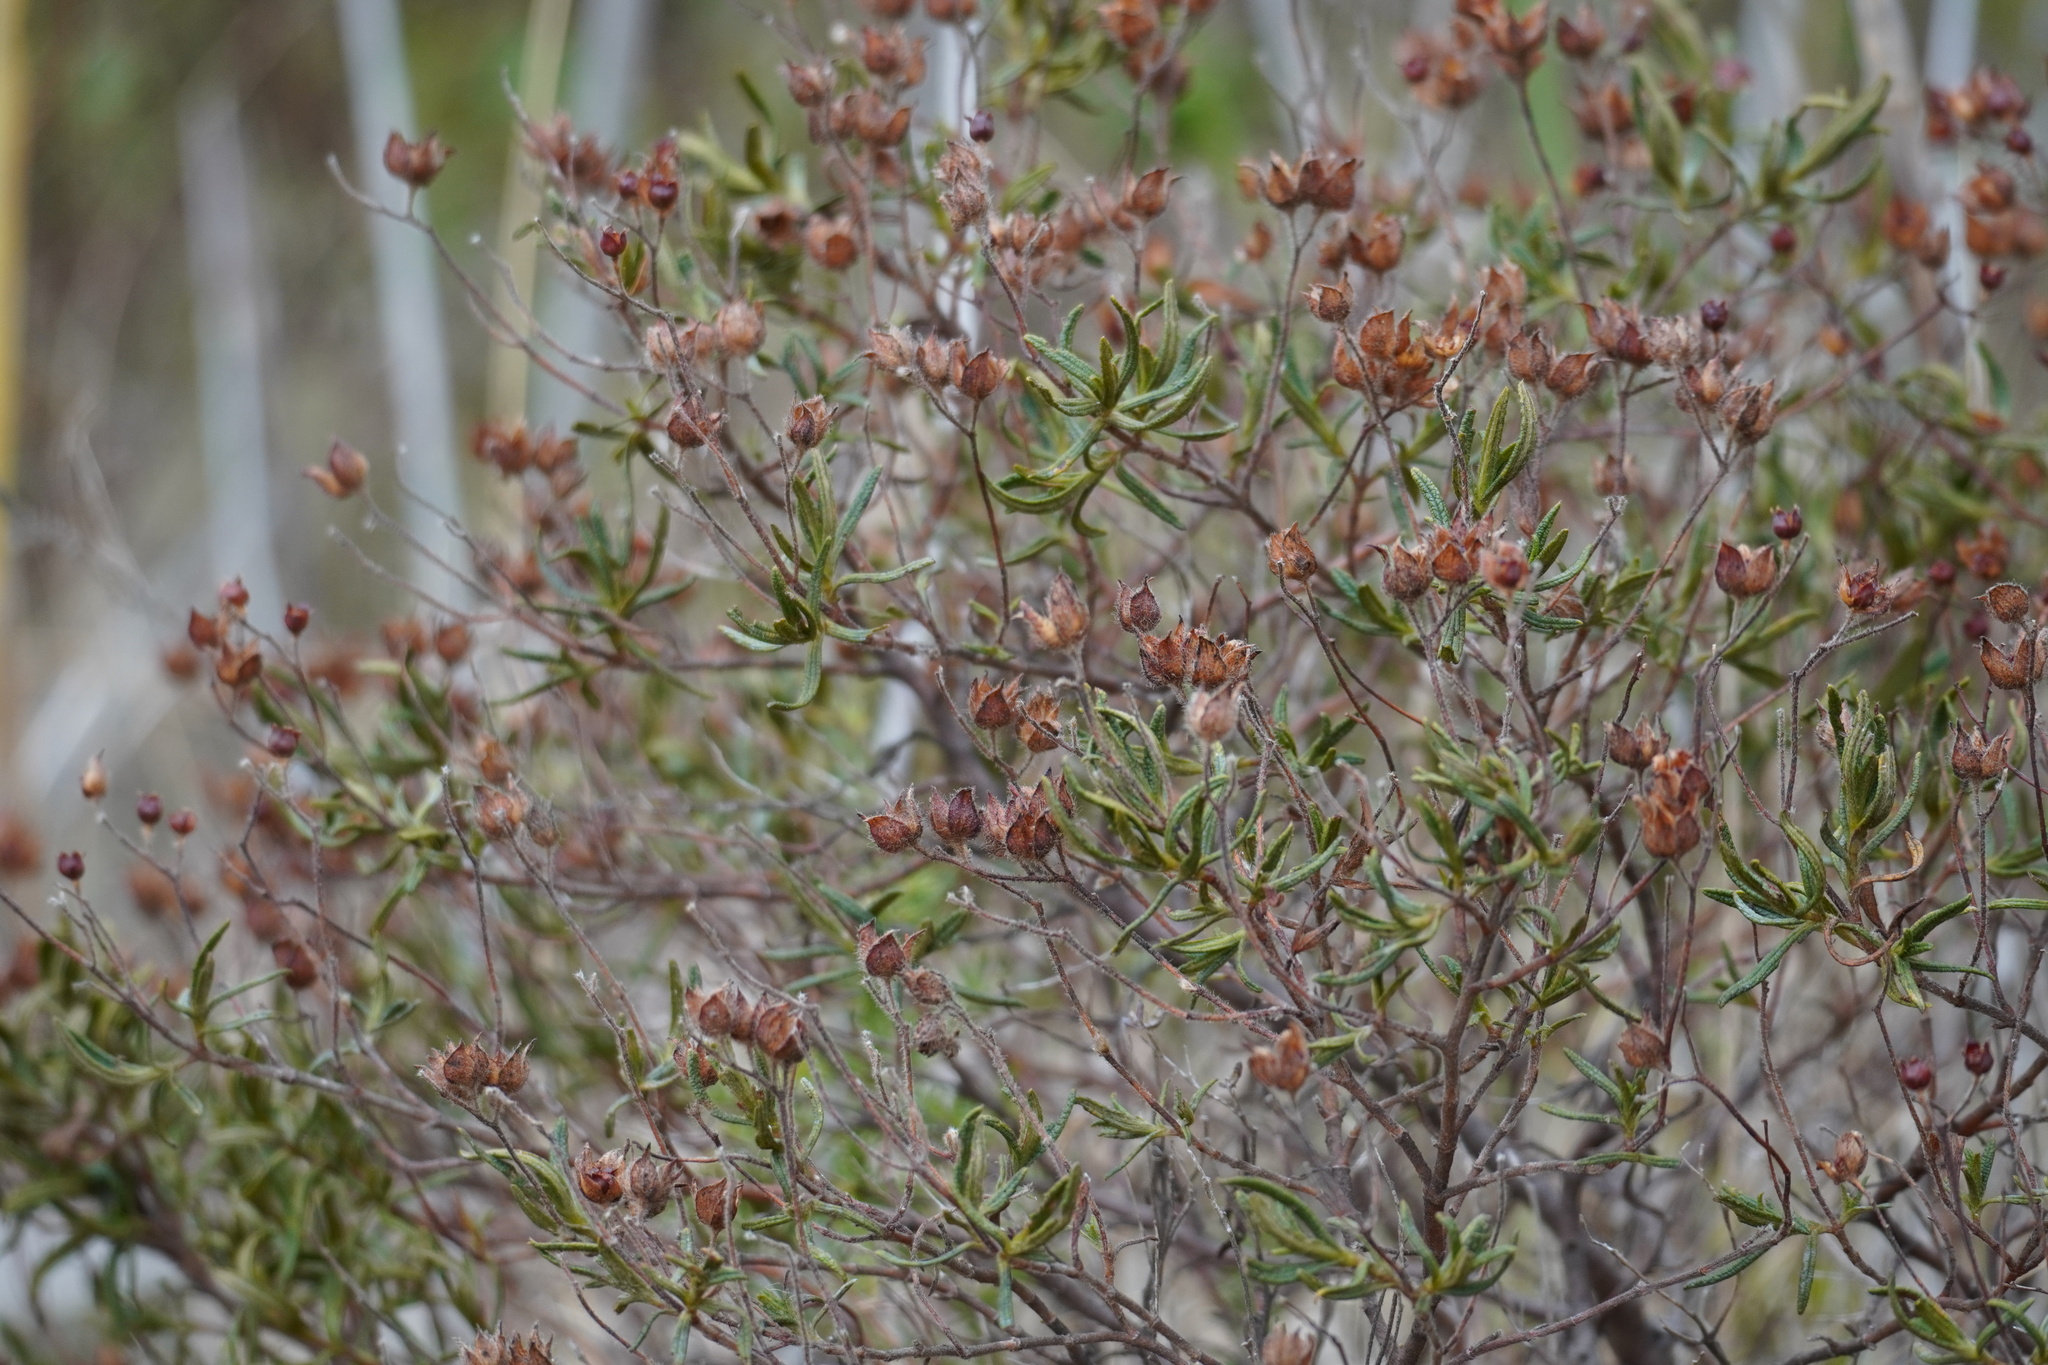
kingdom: Plantae
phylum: Tracheophyta
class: Magnoliopsida
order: Malvales
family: Cistaceae
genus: Cistus
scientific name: Cistus monspeliensis
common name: Montpelier cistus
